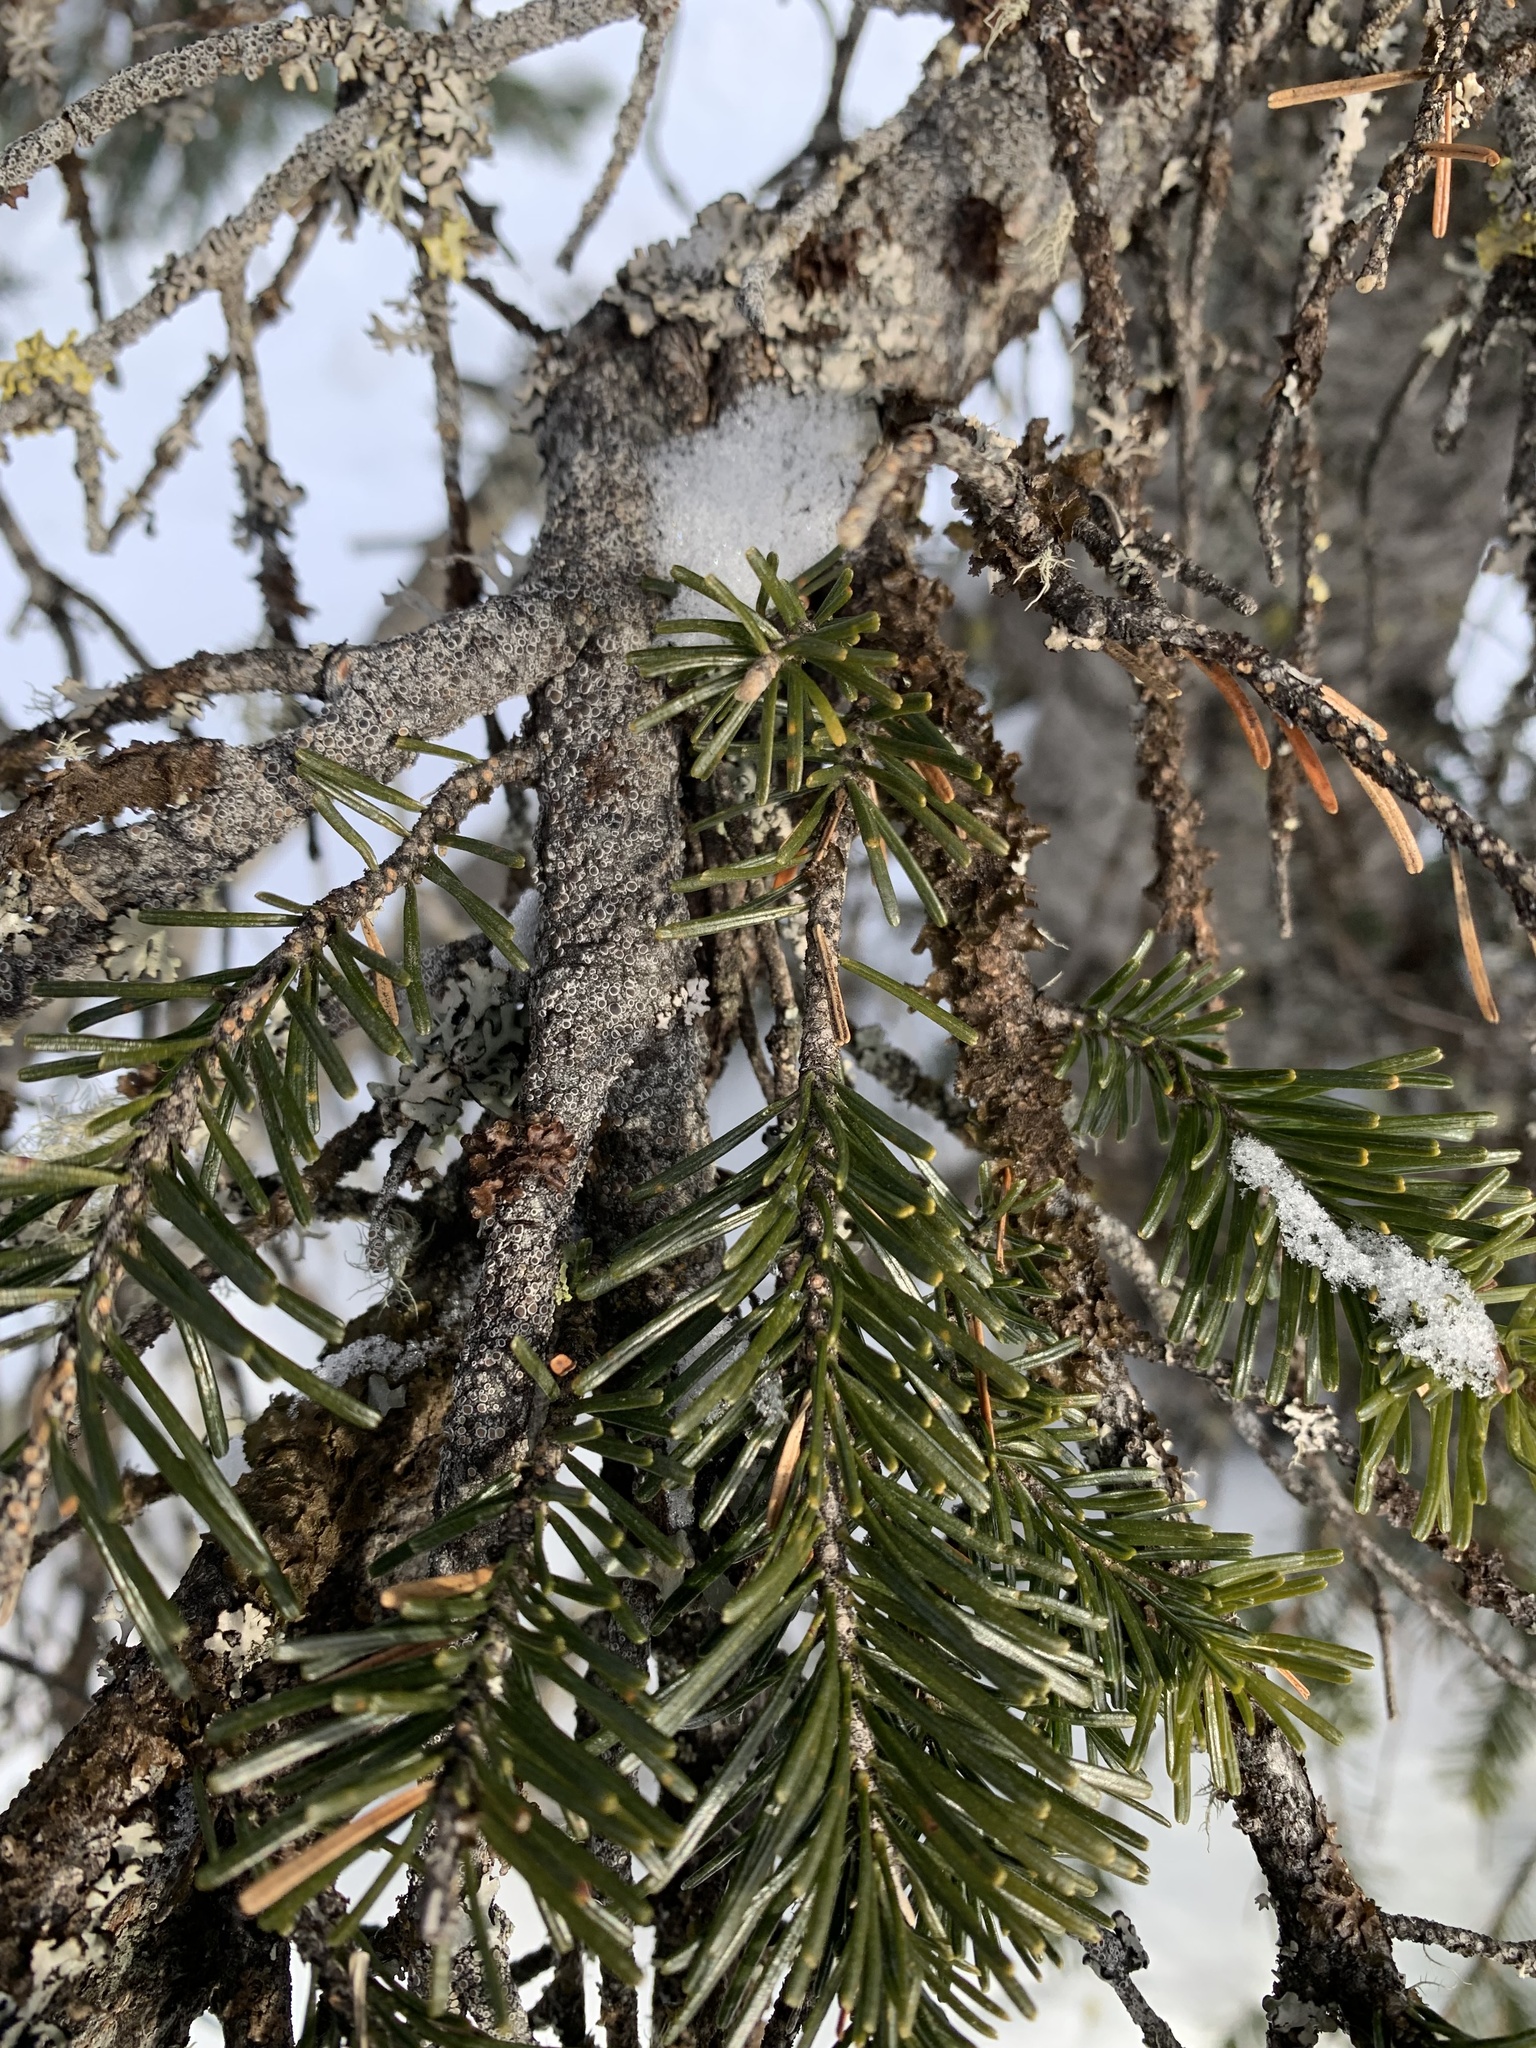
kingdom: Plantae
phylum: Tracheophyta
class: Pinopsida
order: Pinales
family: Pinaceae
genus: Abies
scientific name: Abies sibirica
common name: Siberian fir
